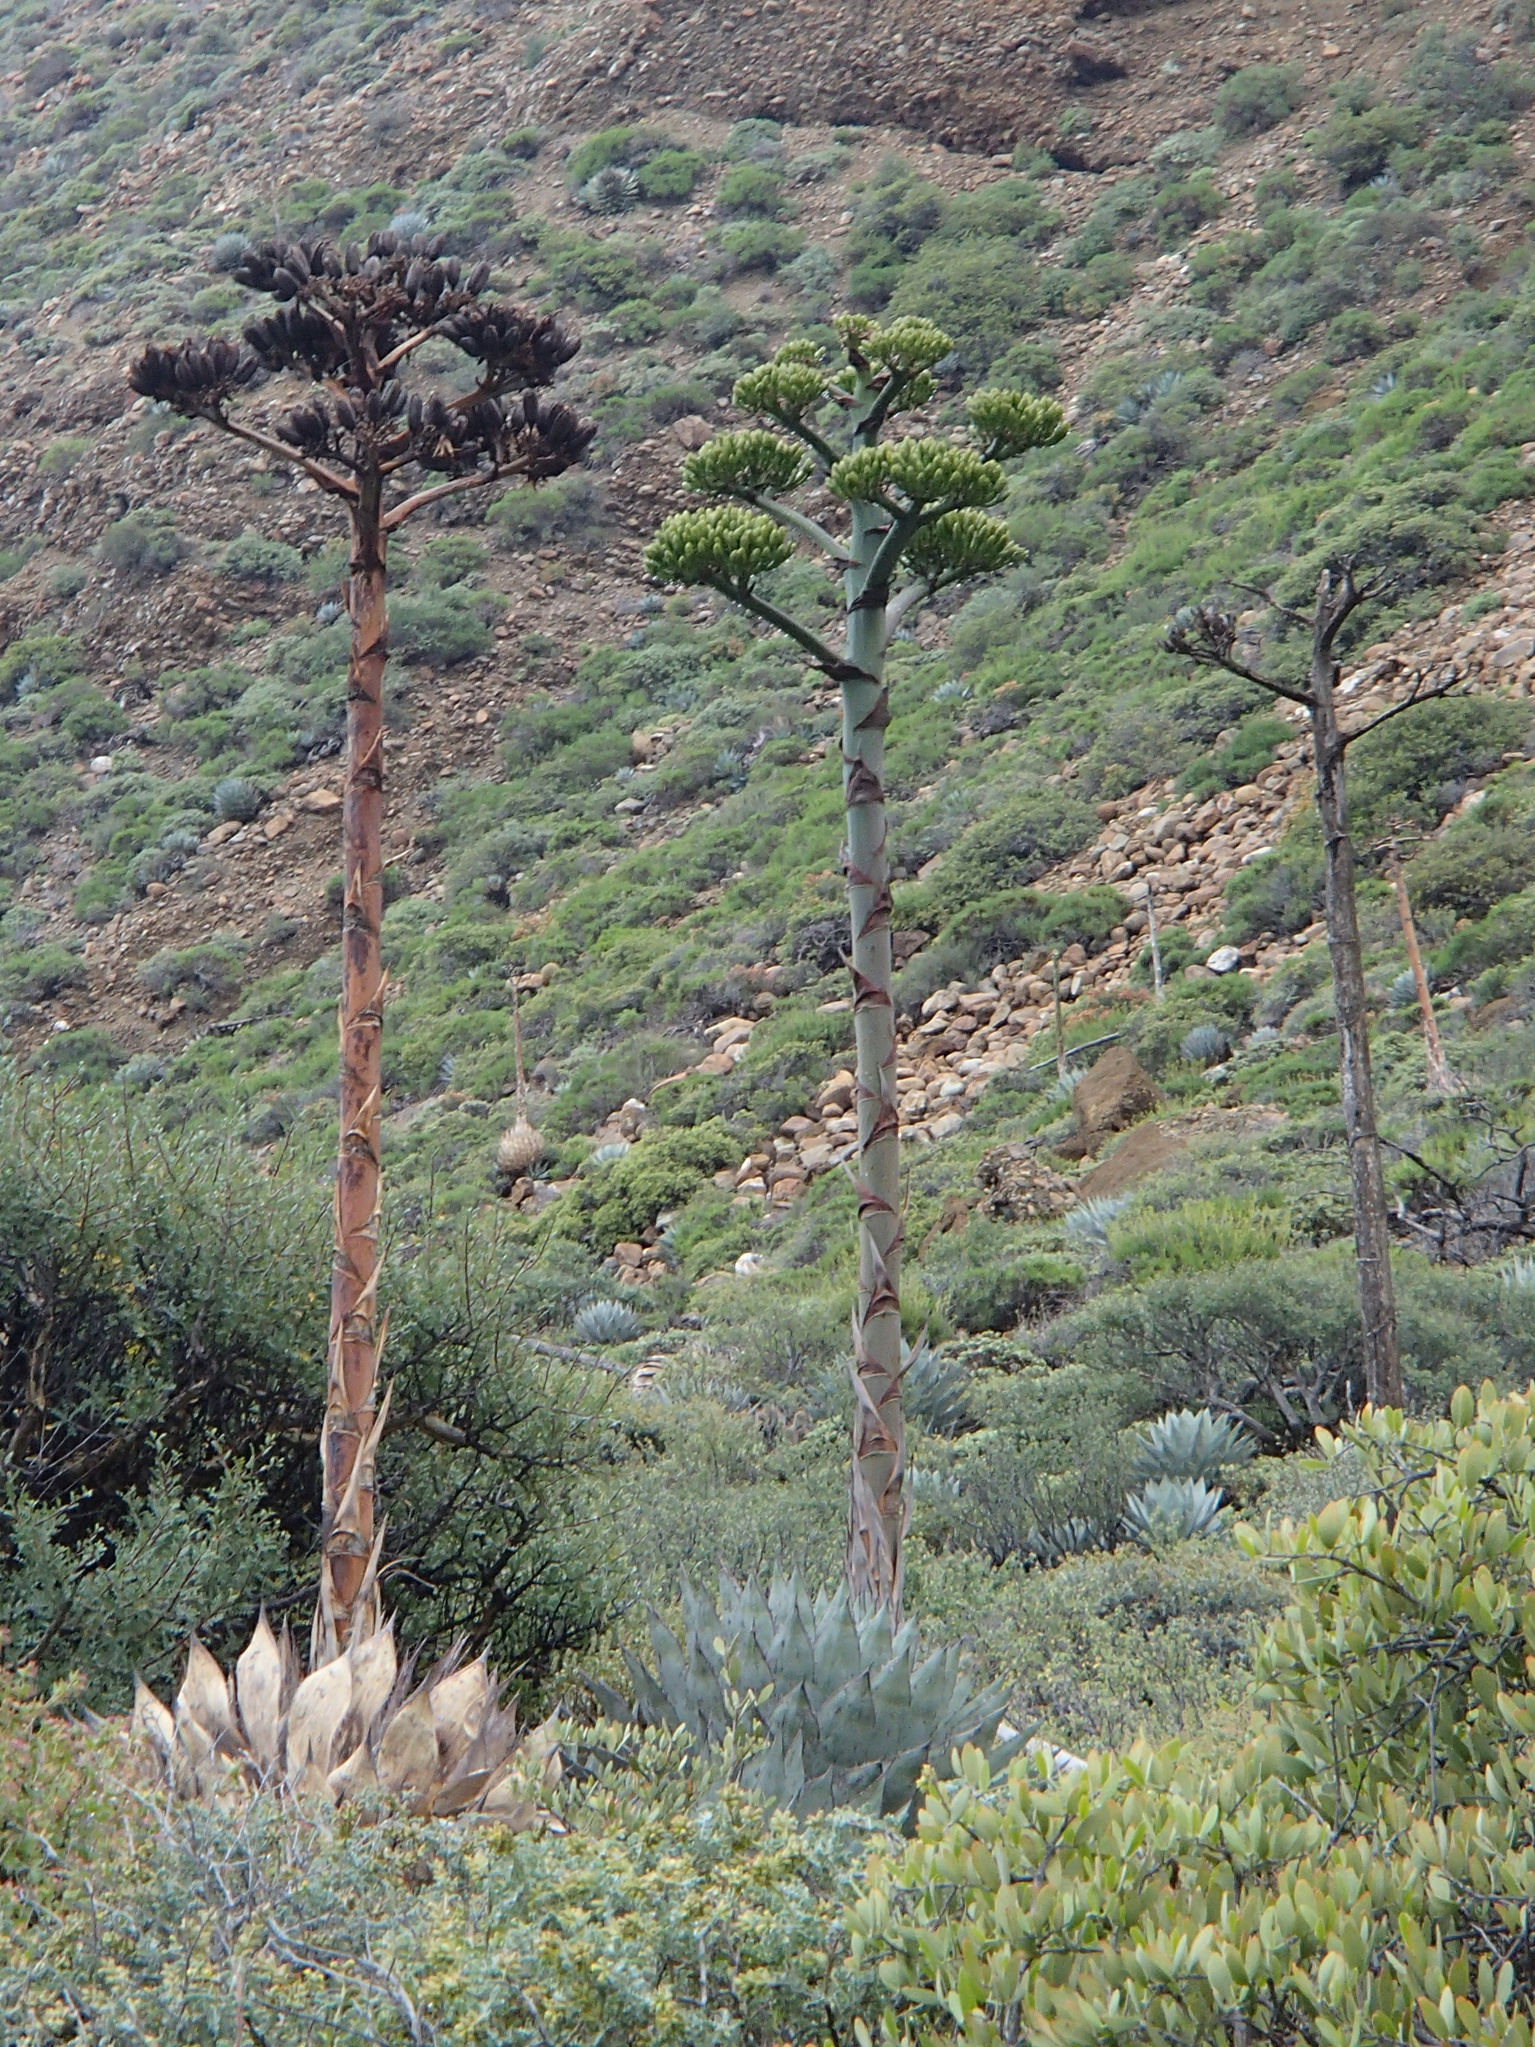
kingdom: Plantae
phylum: Tracheophyta
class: Liliopsida
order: Asparagales
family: Asparagaceae
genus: Agave
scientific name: Agave sebastiana
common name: Cedros agave
